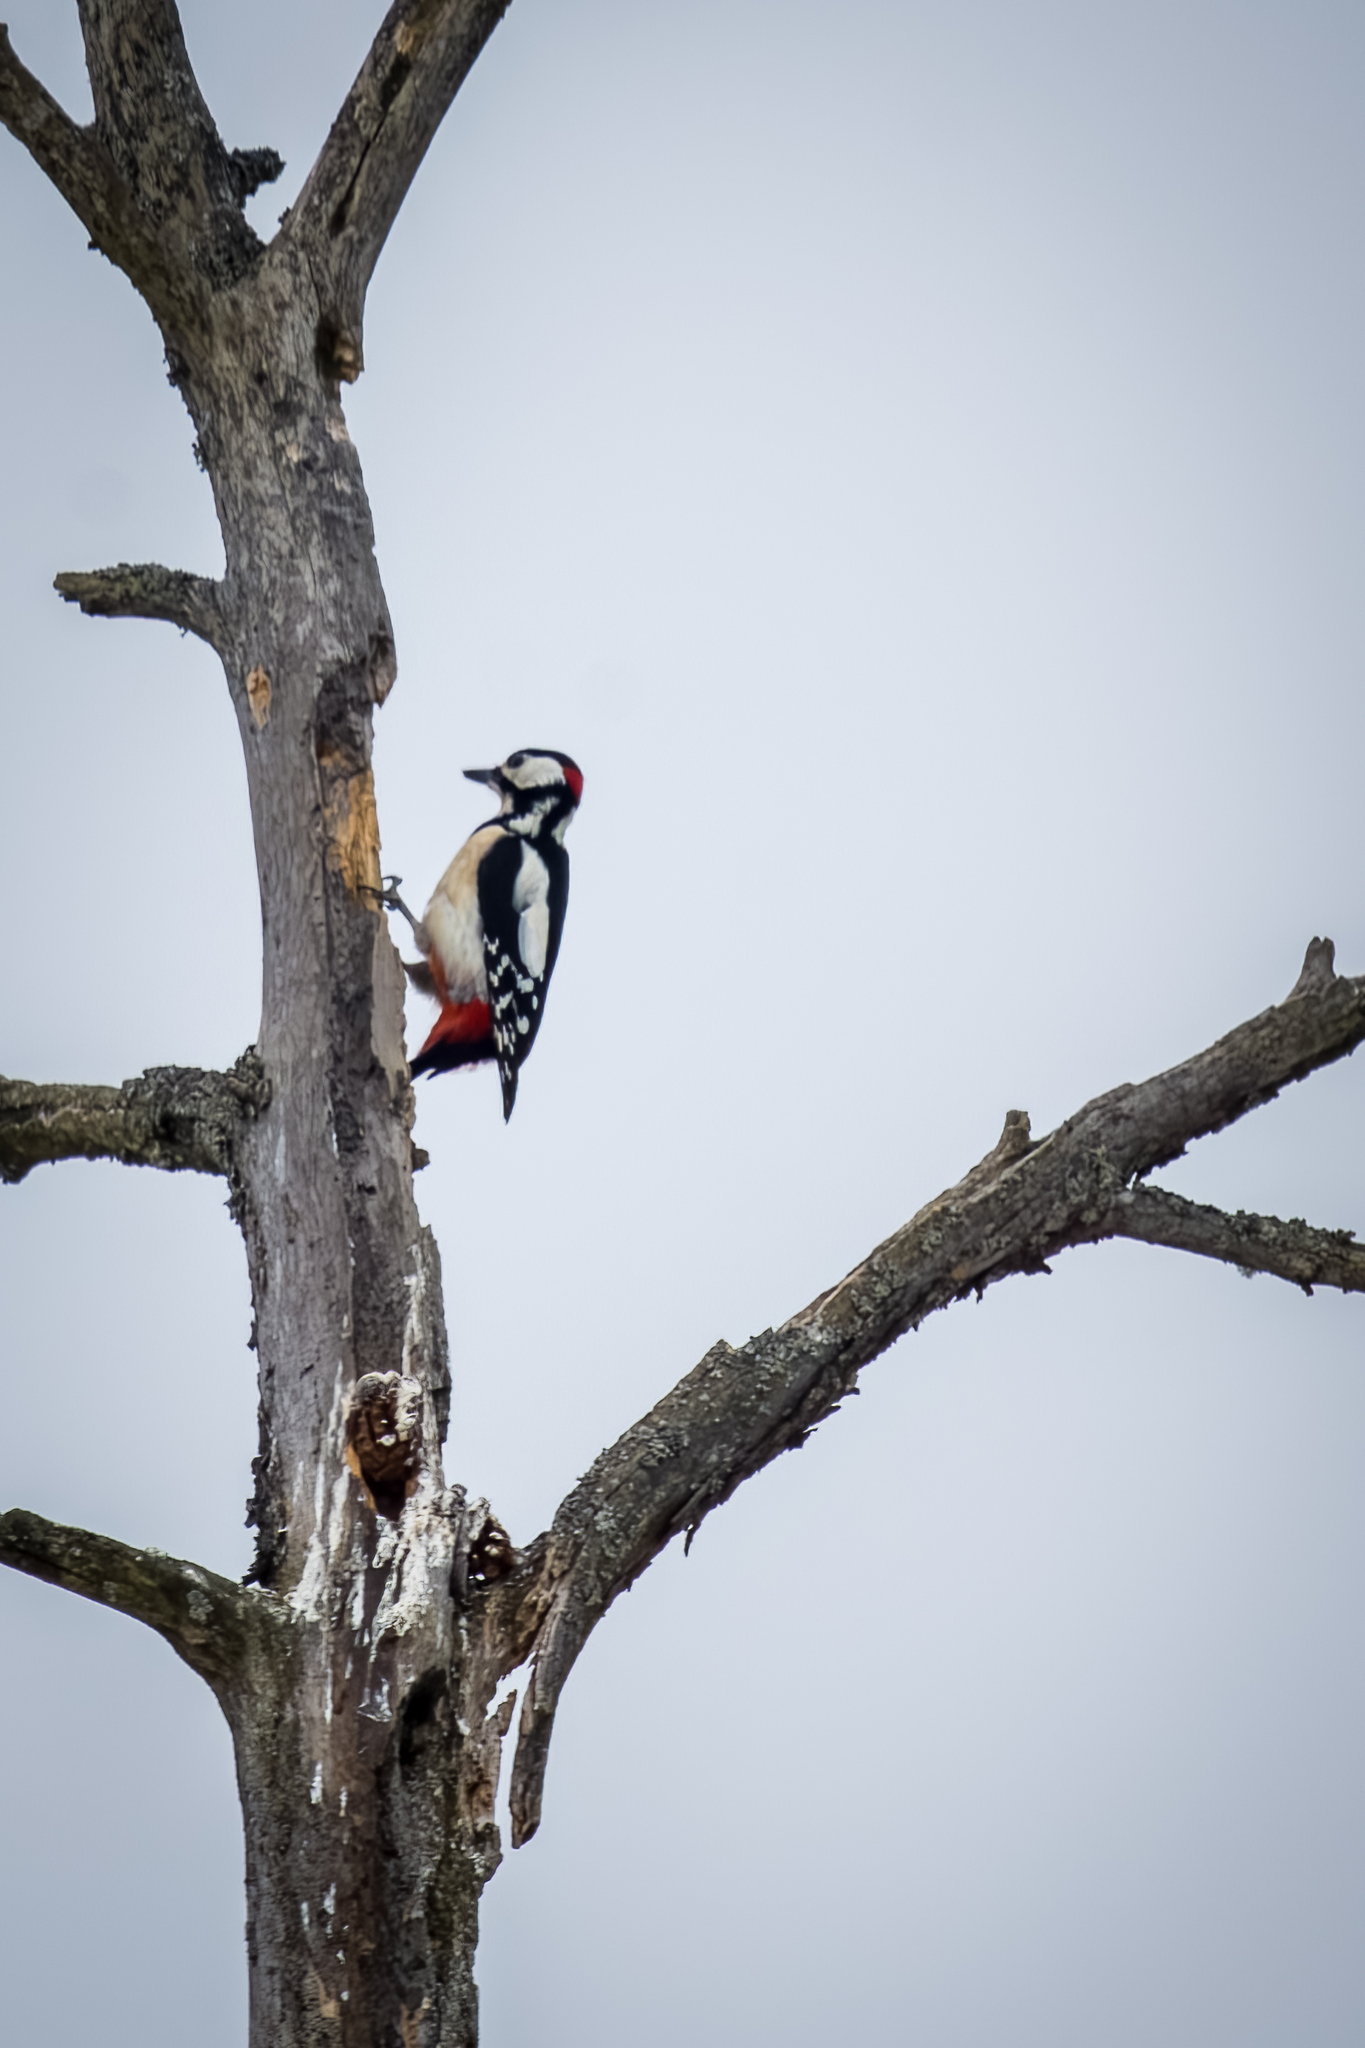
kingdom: Animalia
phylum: Chordata
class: Aves
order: Piciformes
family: Picidae
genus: Dendrocopos
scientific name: Dendrocopos major
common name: Great spotted woodpecker
